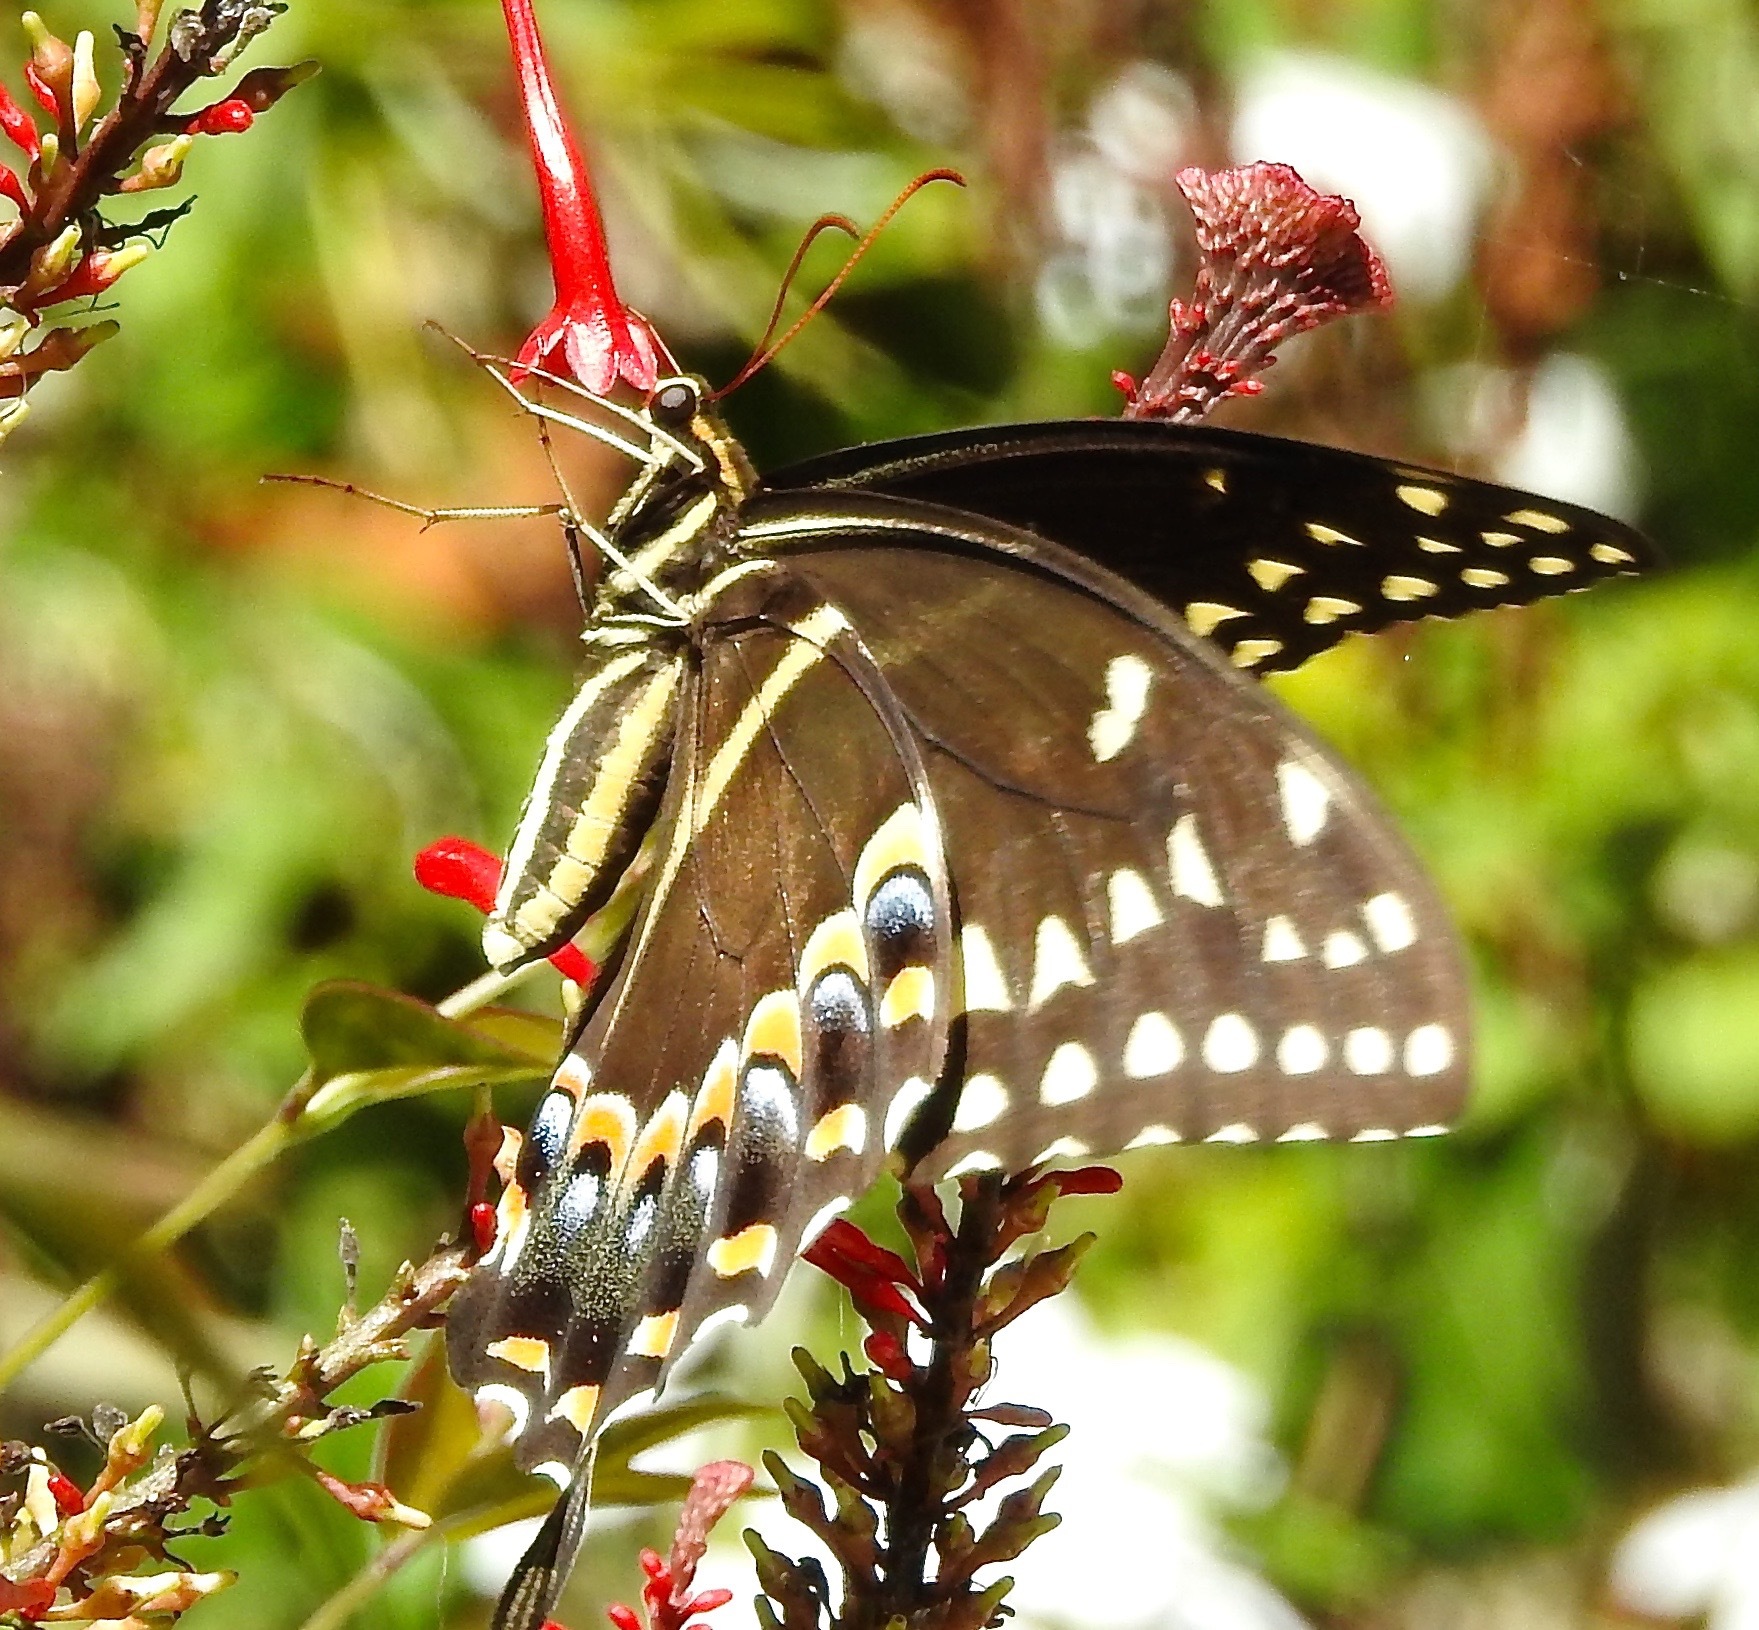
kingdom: Animalia
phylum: Arthropoda
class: Insecta
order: Lepidoptera
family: Papilionidae
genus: Papilio
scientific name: Papilio palamedes
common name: Palamedes swallowtail
